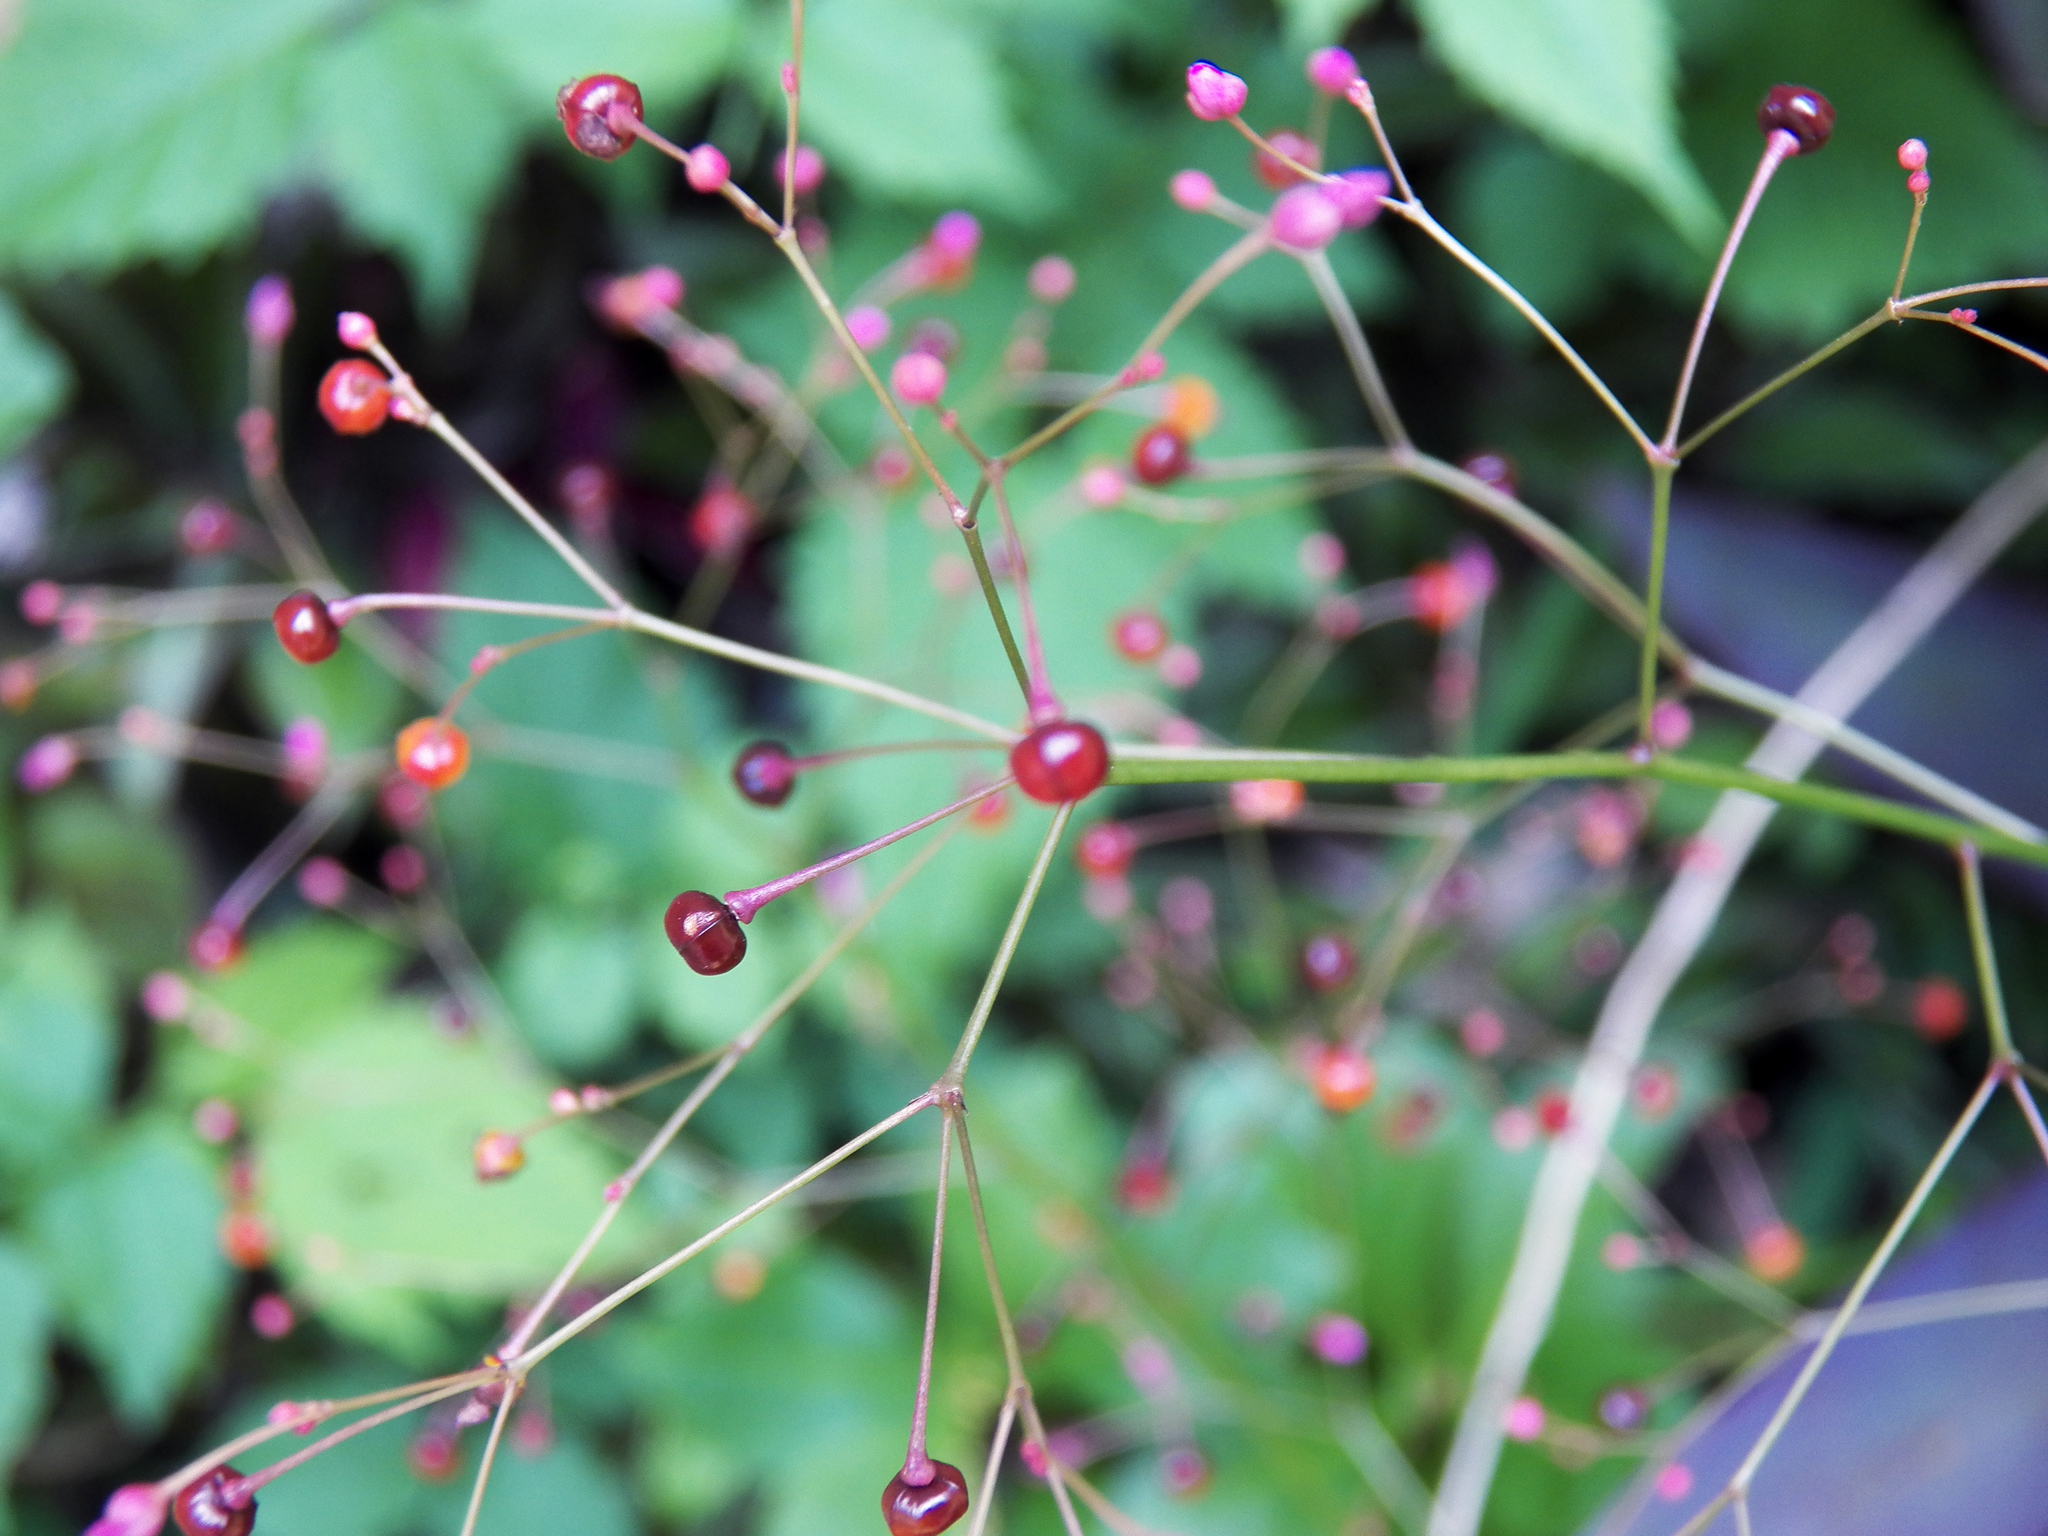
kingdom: Plantae
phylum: Tracheophyta
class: Magnoliopsida
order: Caryophyllales
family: Talinaceae
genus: Talinum
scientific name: Talinum paniculatum
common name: Jewels of opar
